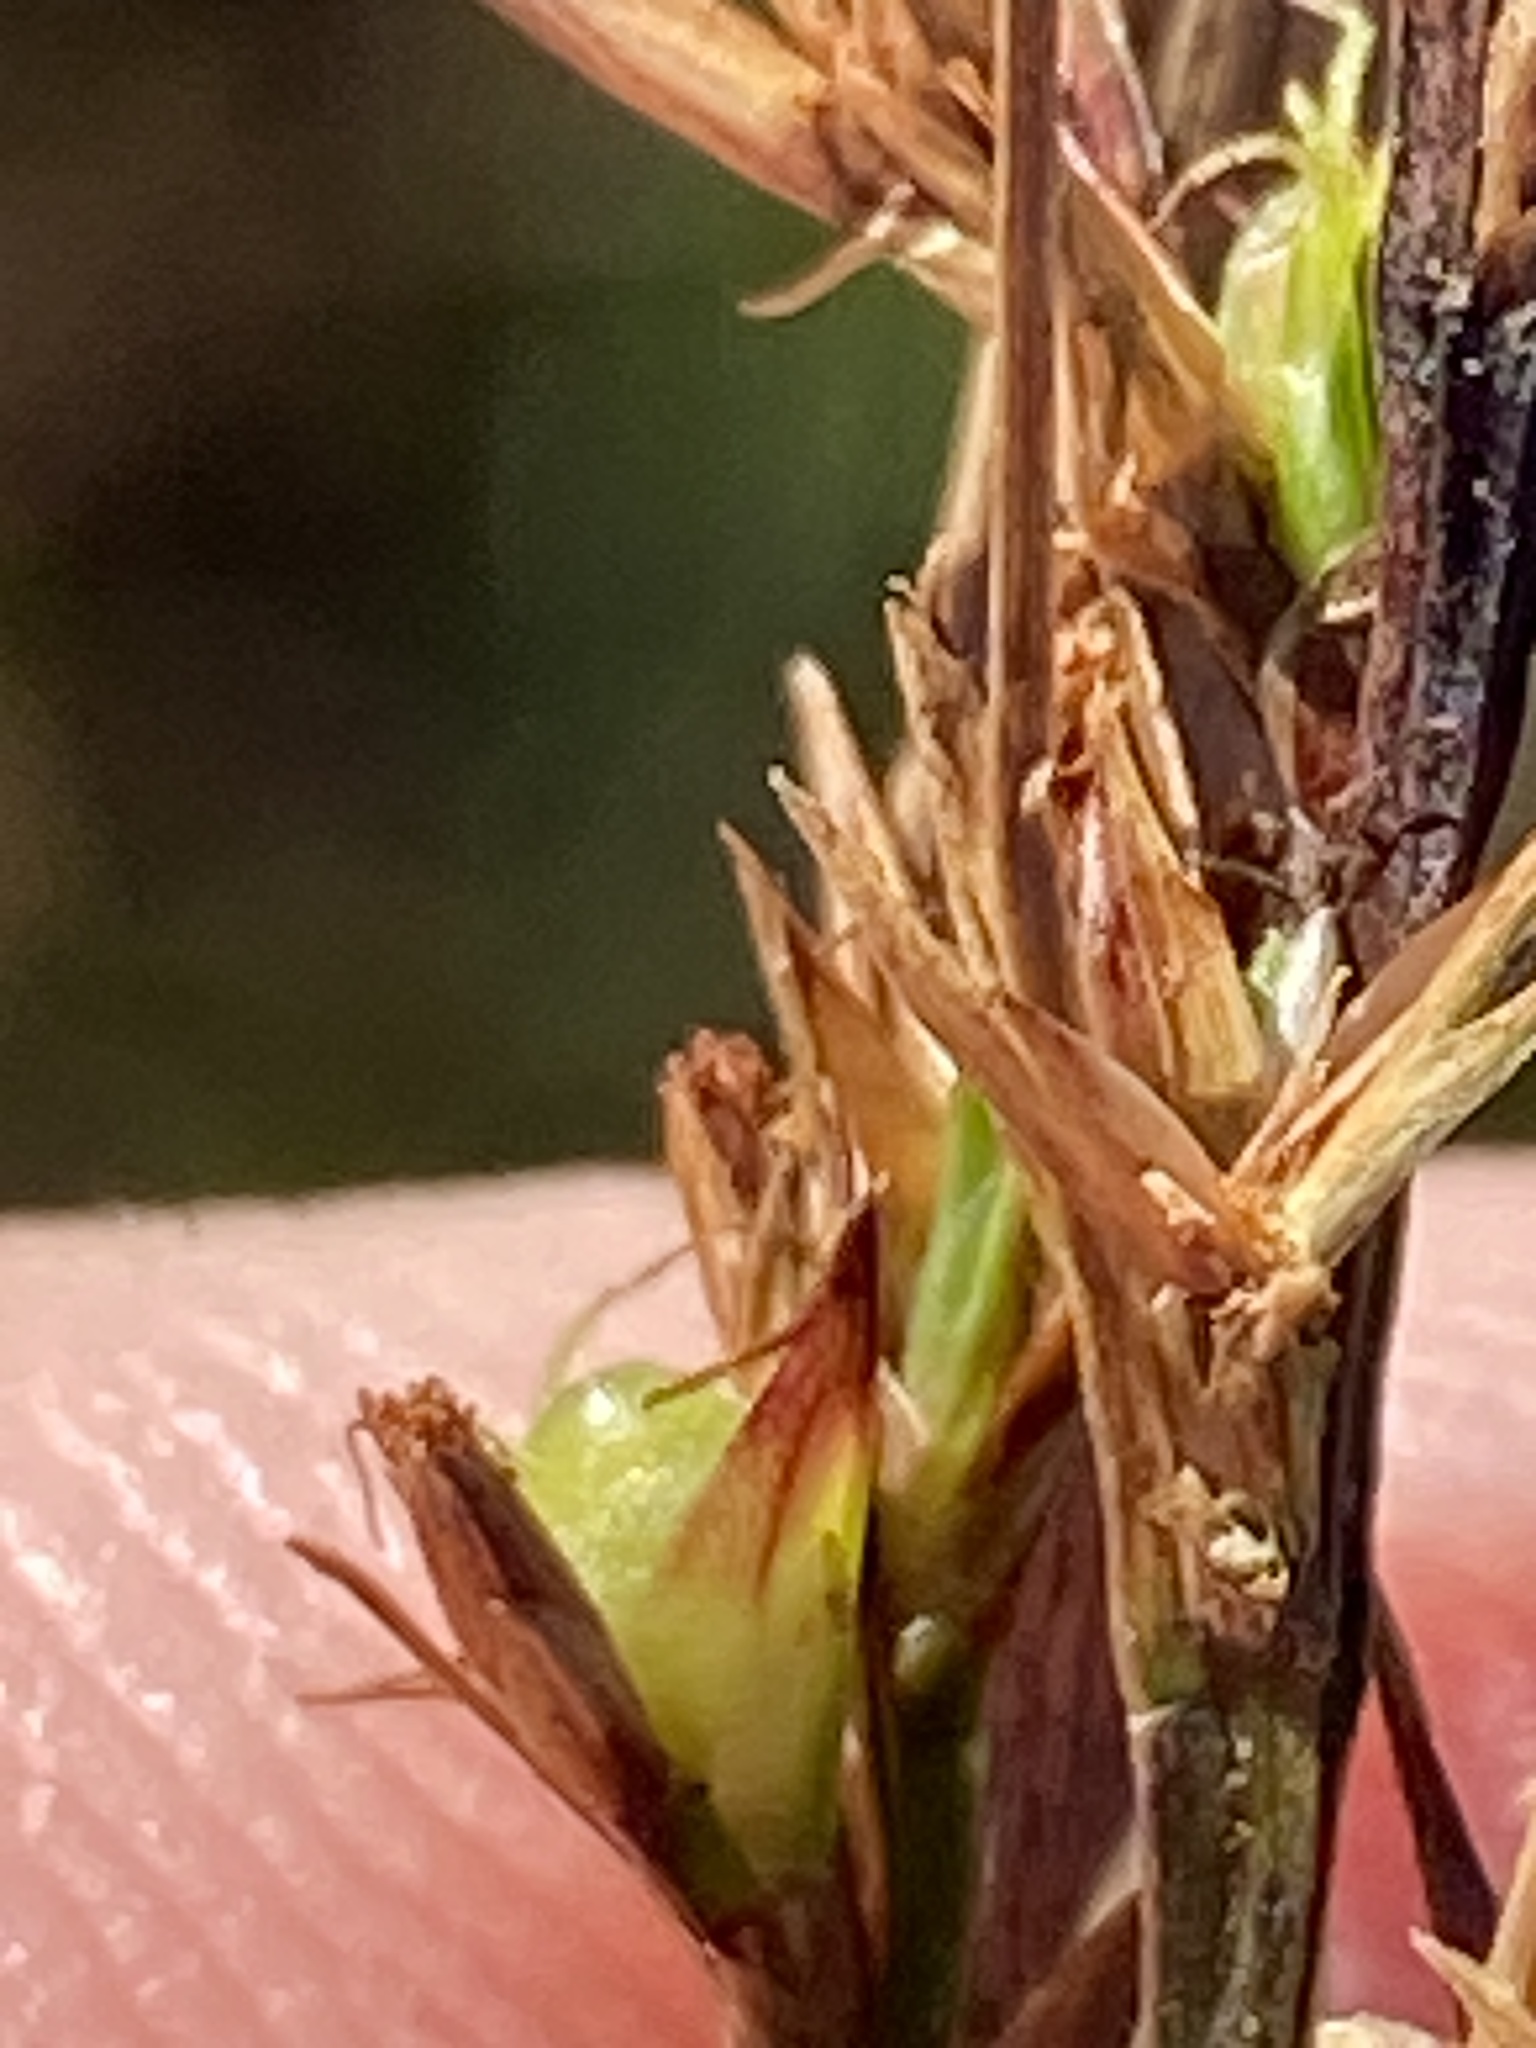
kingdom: Plantae
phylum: Tracheophyta
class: Liliopsida
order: Poales
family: Cyperaceae
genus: Scleria
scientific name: Scleria reticularis
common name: Netted nutrush
